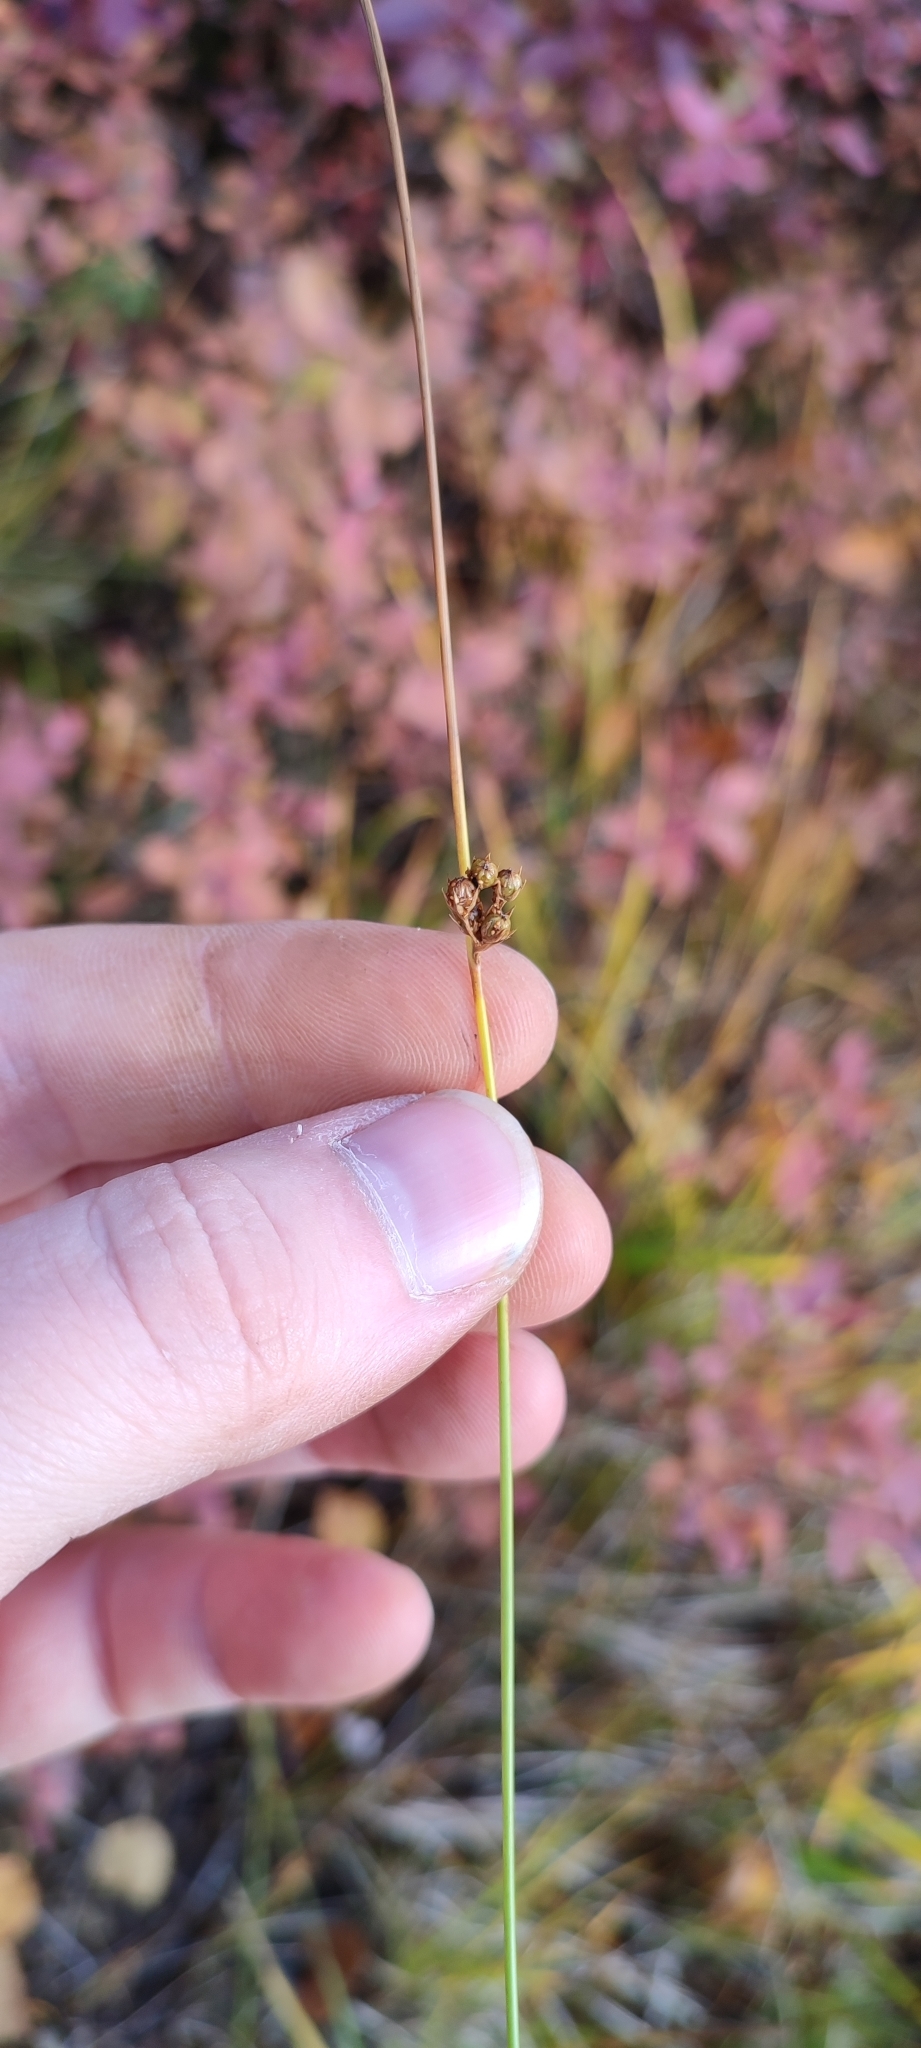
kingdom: Plantae
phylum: Tracheophyta
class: Liliopsida
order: Poales
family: Juncaceae
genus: Juncus
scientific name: Juncus filiformis
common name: Thread rush
